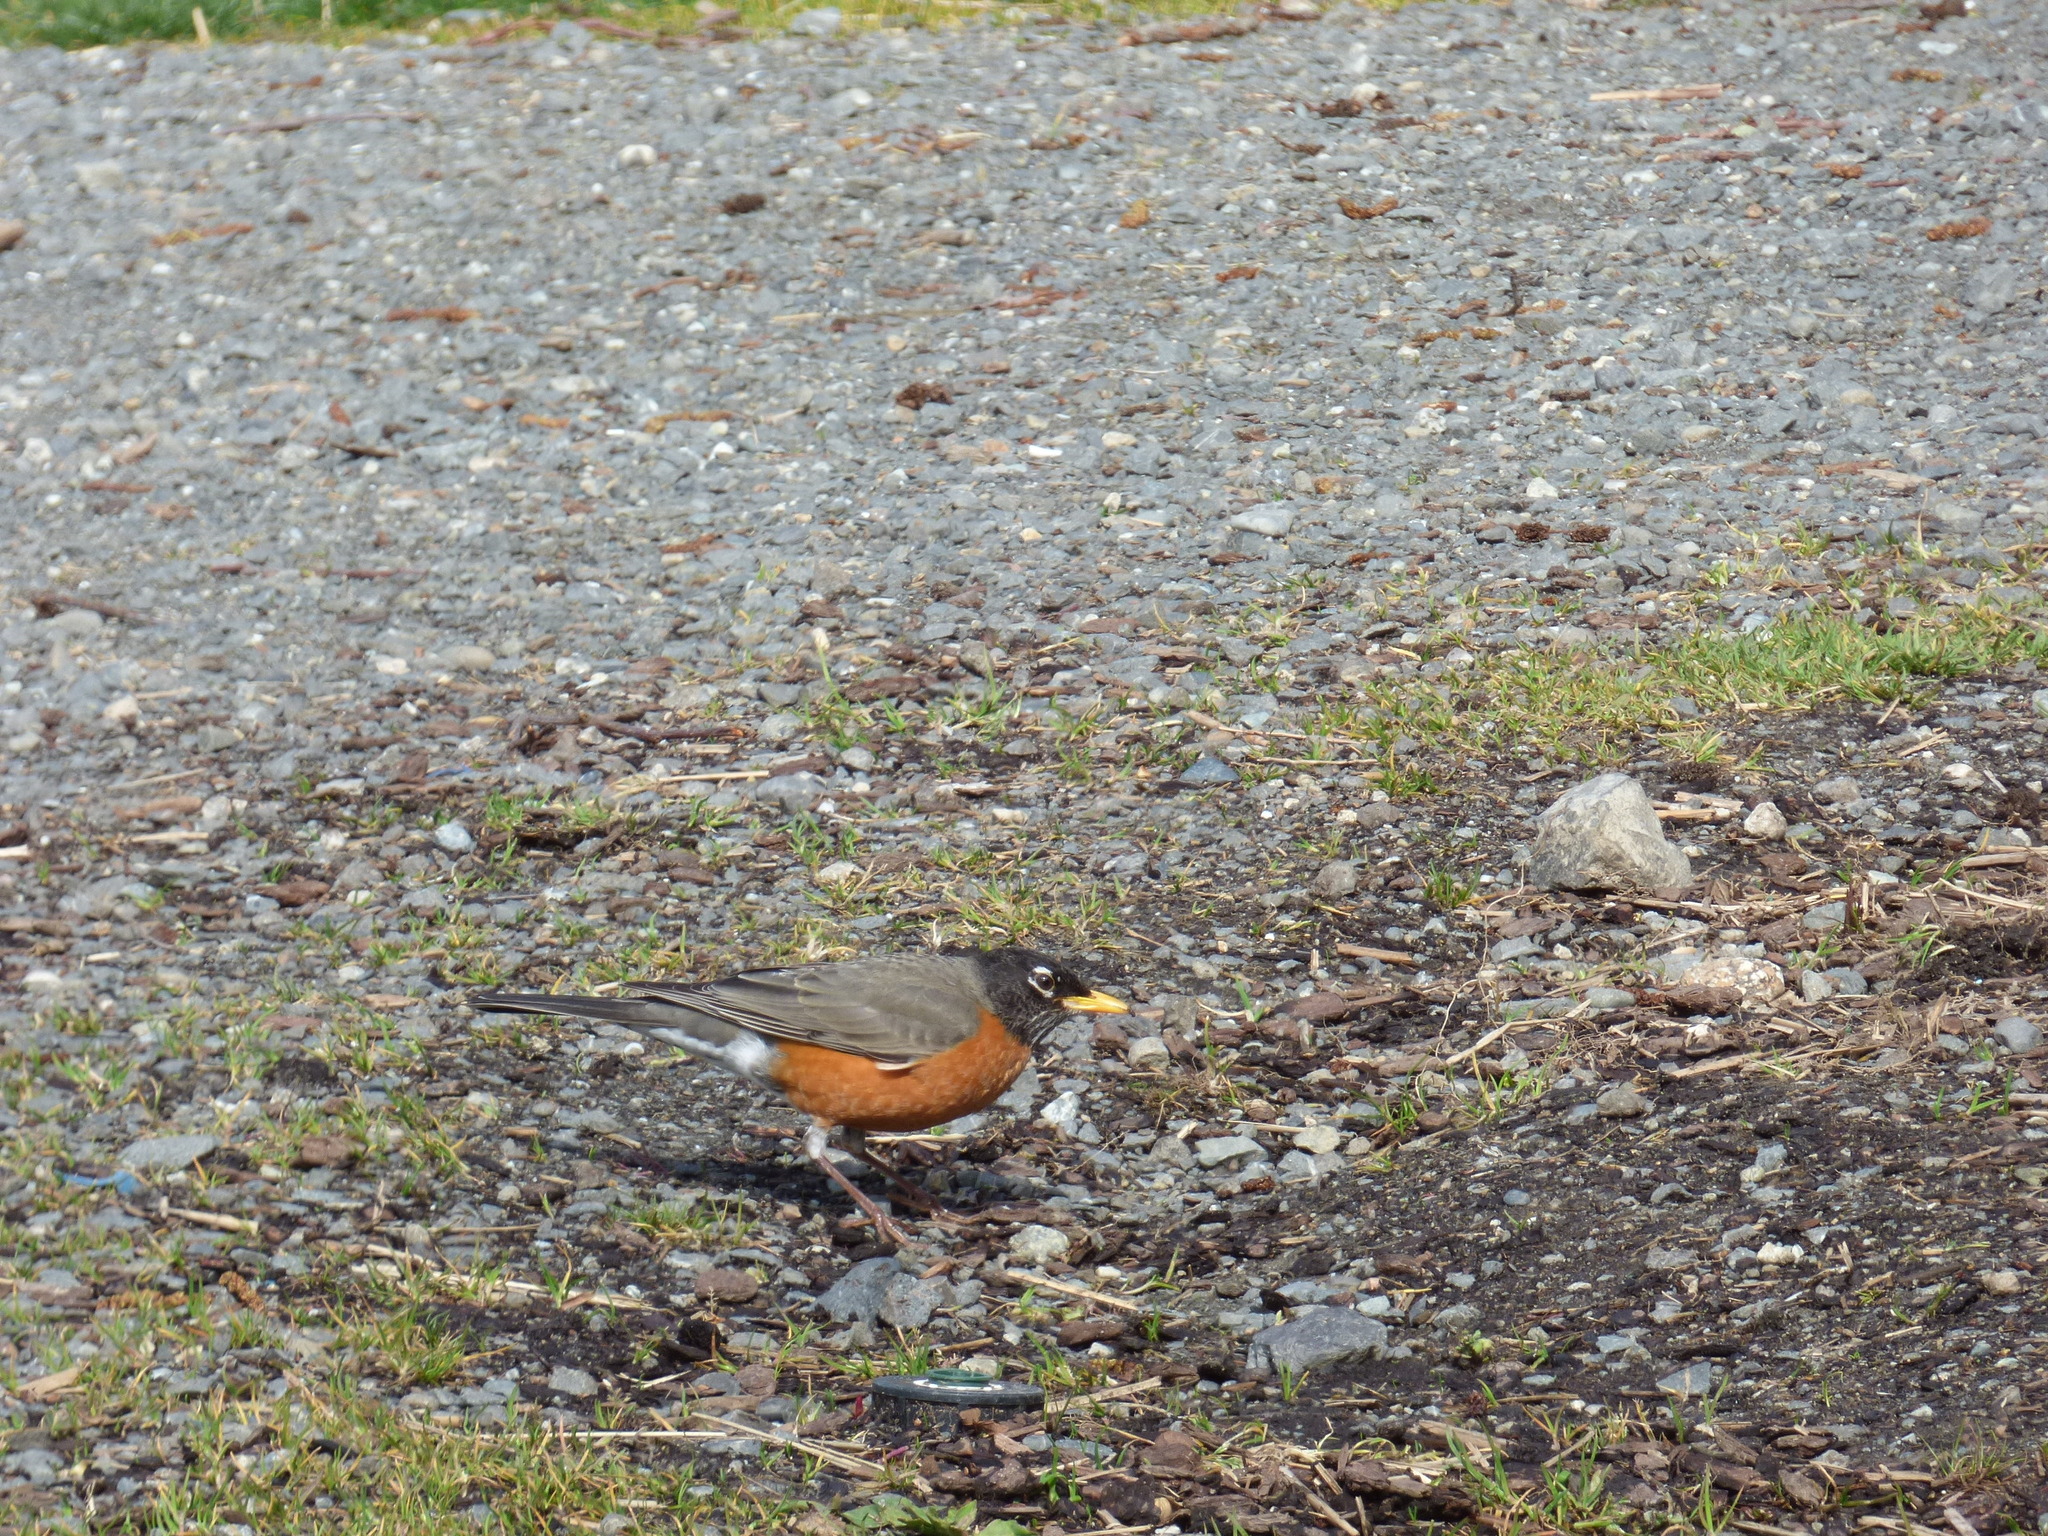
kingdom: Animalia
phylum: Chordata
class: Aves
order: Passeriformes
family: Turdidae
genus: Turdus
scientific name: Turdus migratorius
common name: American robin
